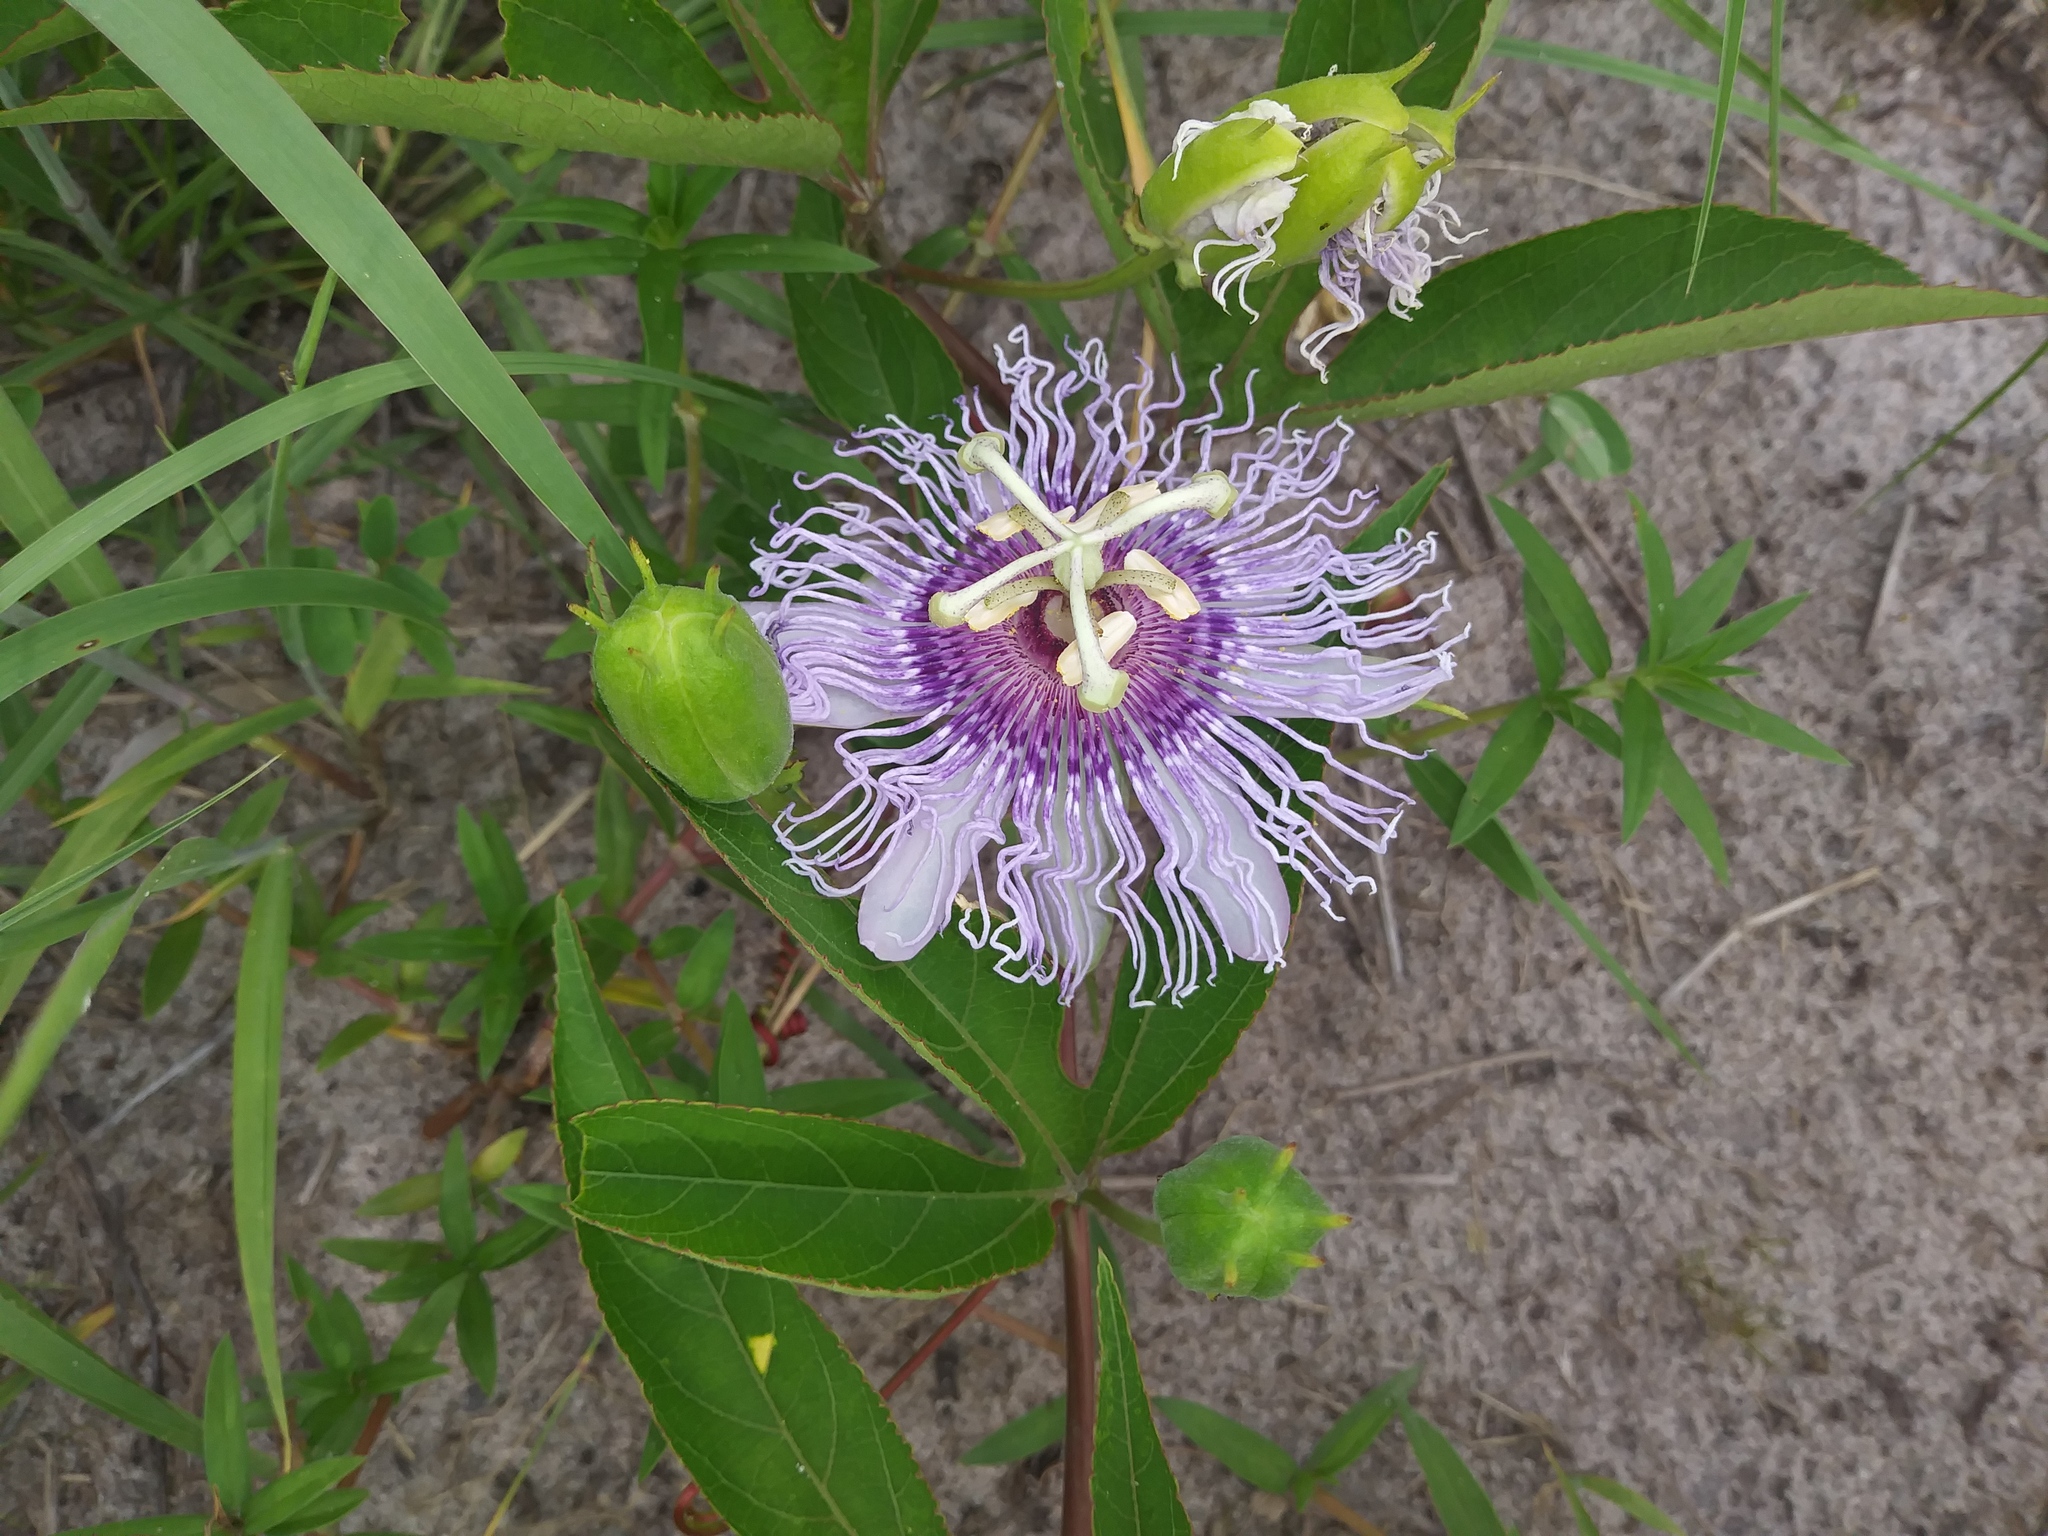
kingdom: Plantae
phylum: Tracheophyta
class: Magnoliopsida
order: Malpighiales
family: Passifloraceae
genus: Passiflora
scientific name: Passiflora incarnata
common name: Apricot-vine
